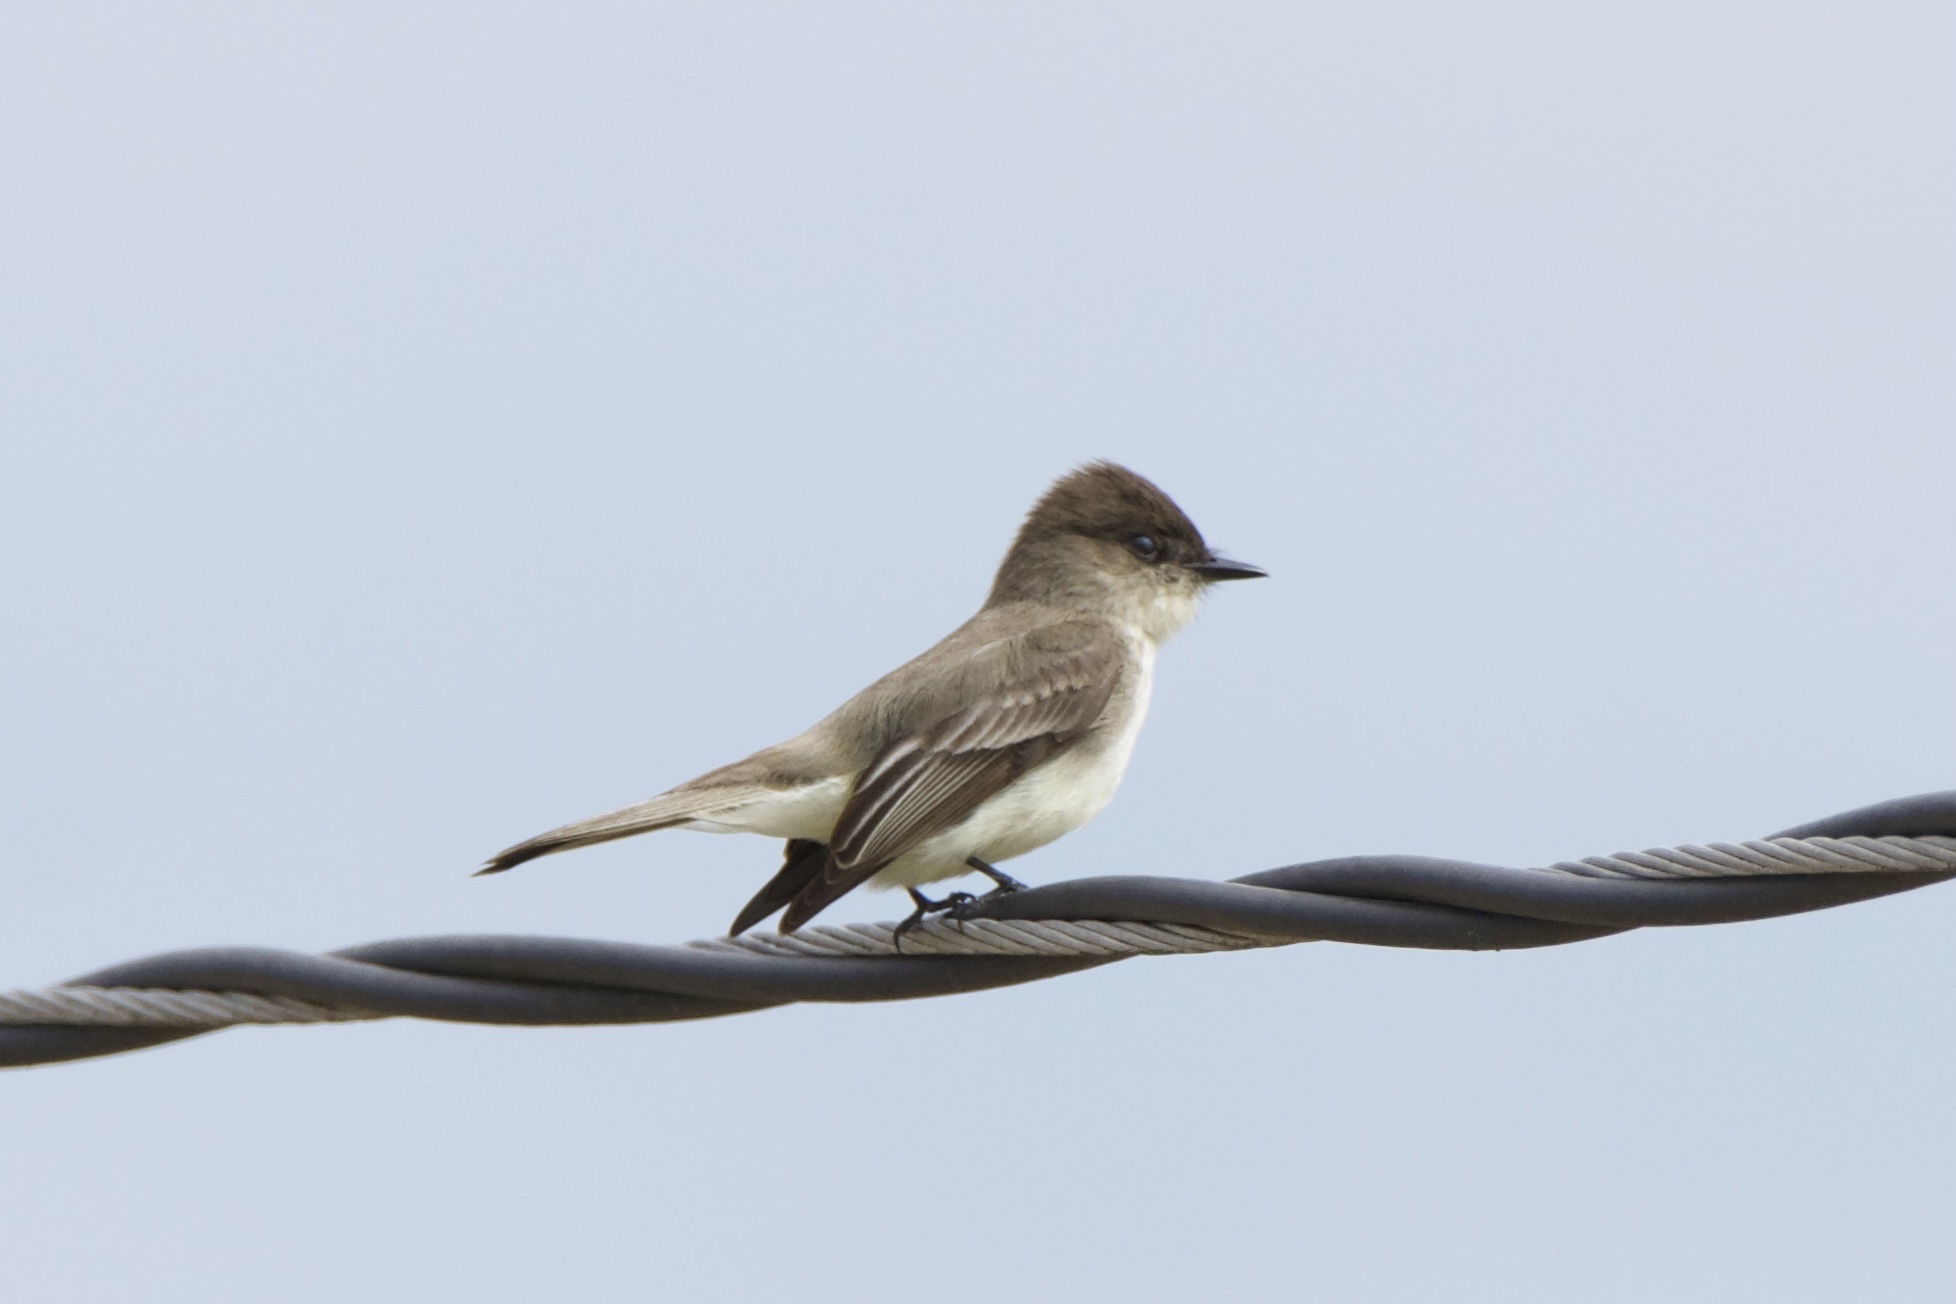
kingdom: Animalia
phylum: Chordata
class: Aves
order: Passeriformes
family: Tyrannidae
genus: Sayornis
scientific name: Sayornis phoebe
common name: Eastern phoebe
